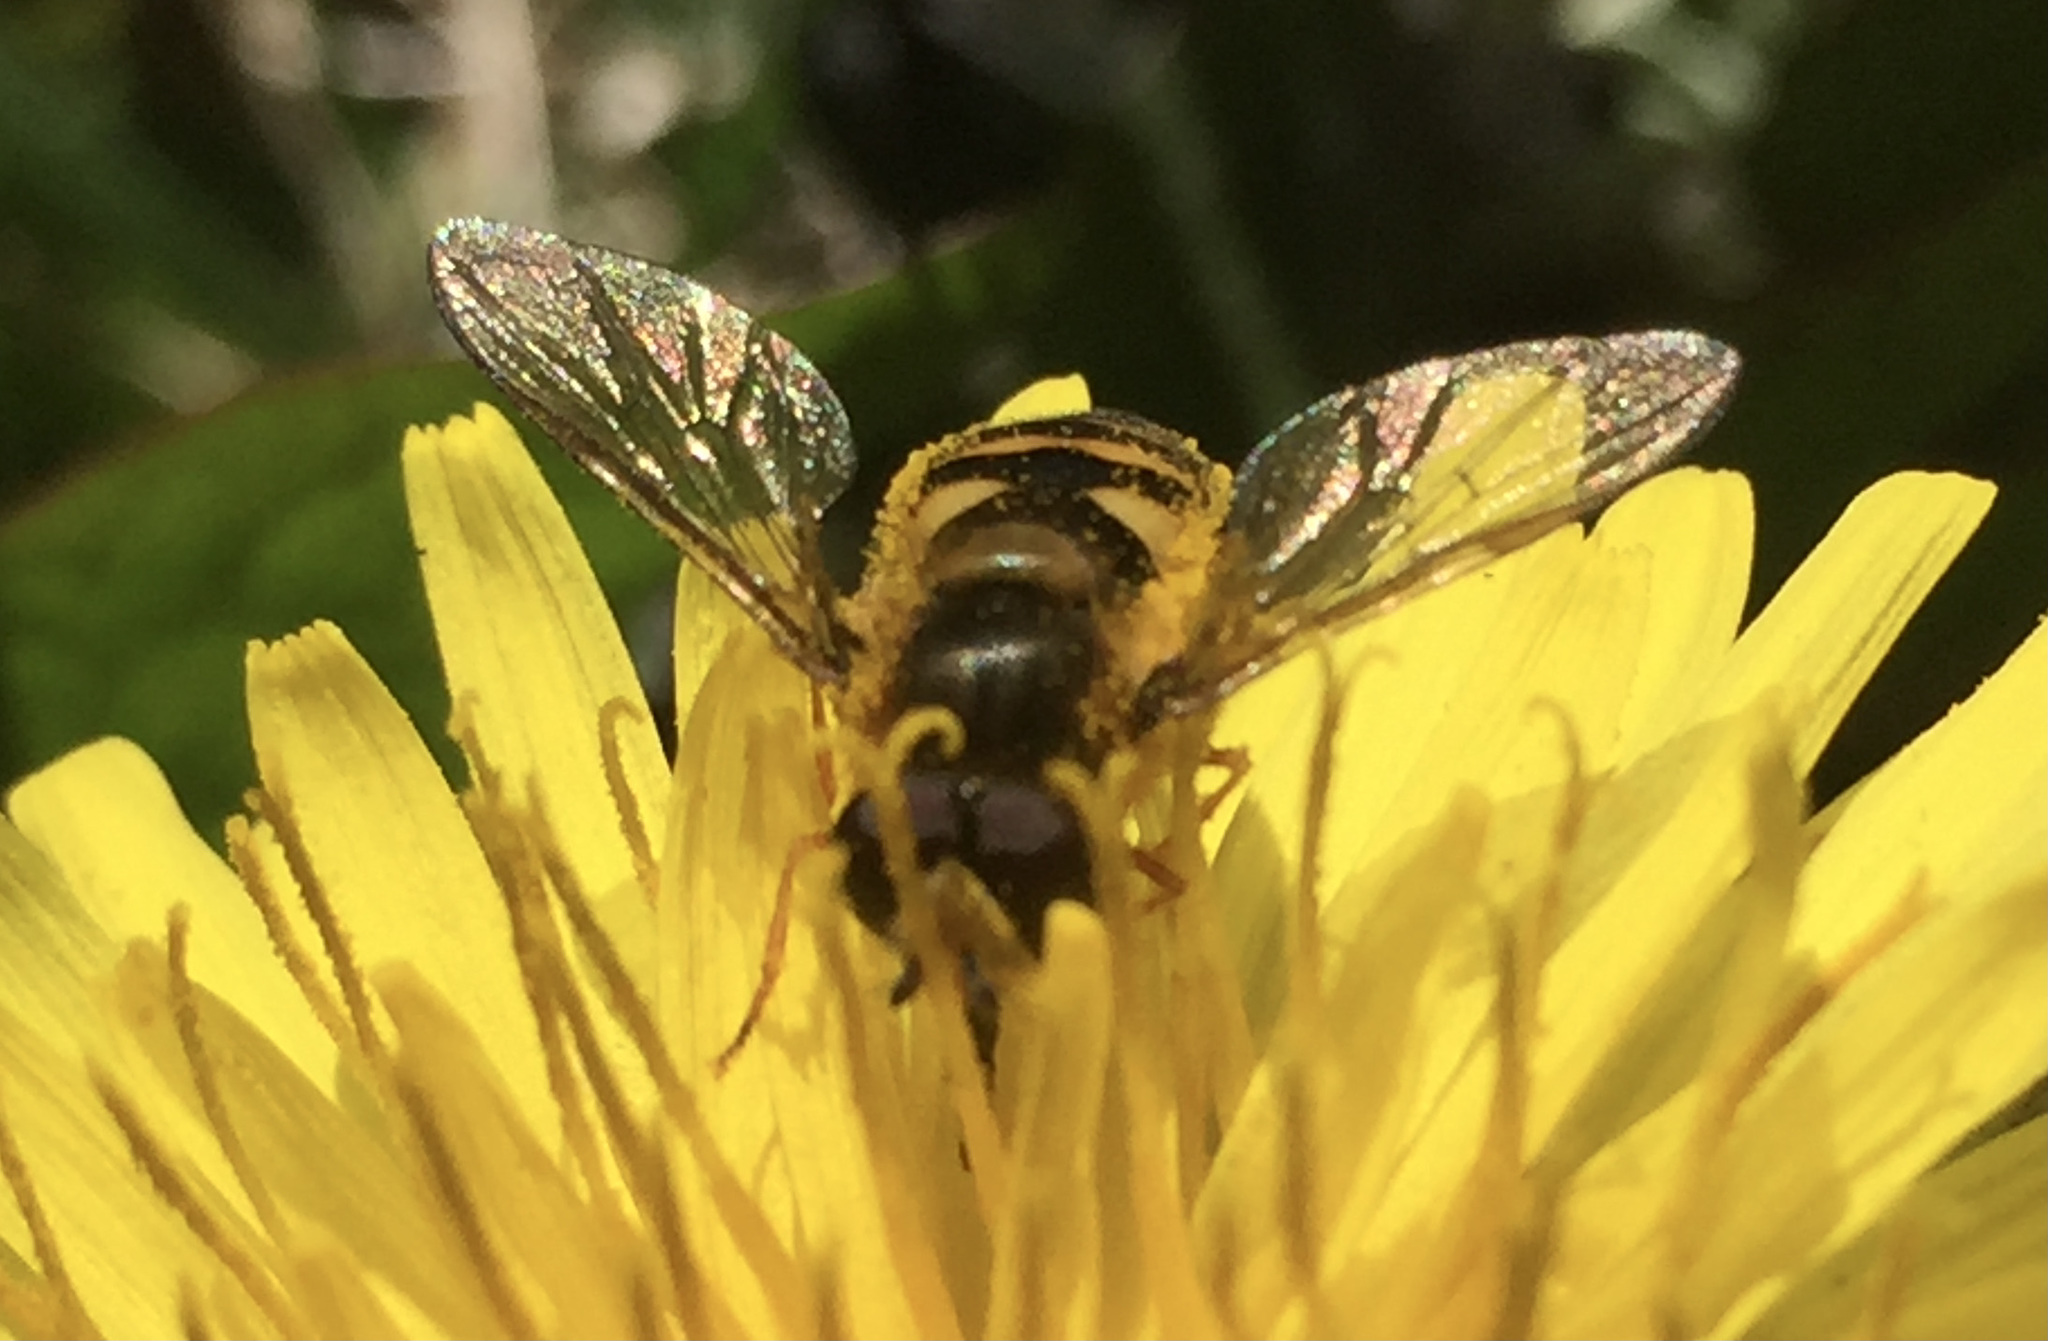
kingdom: Animalia
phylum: Arthropoda
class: Insecta
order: Diptera
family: Syrphidae
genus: Eupeodes
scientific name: Eupeodes
